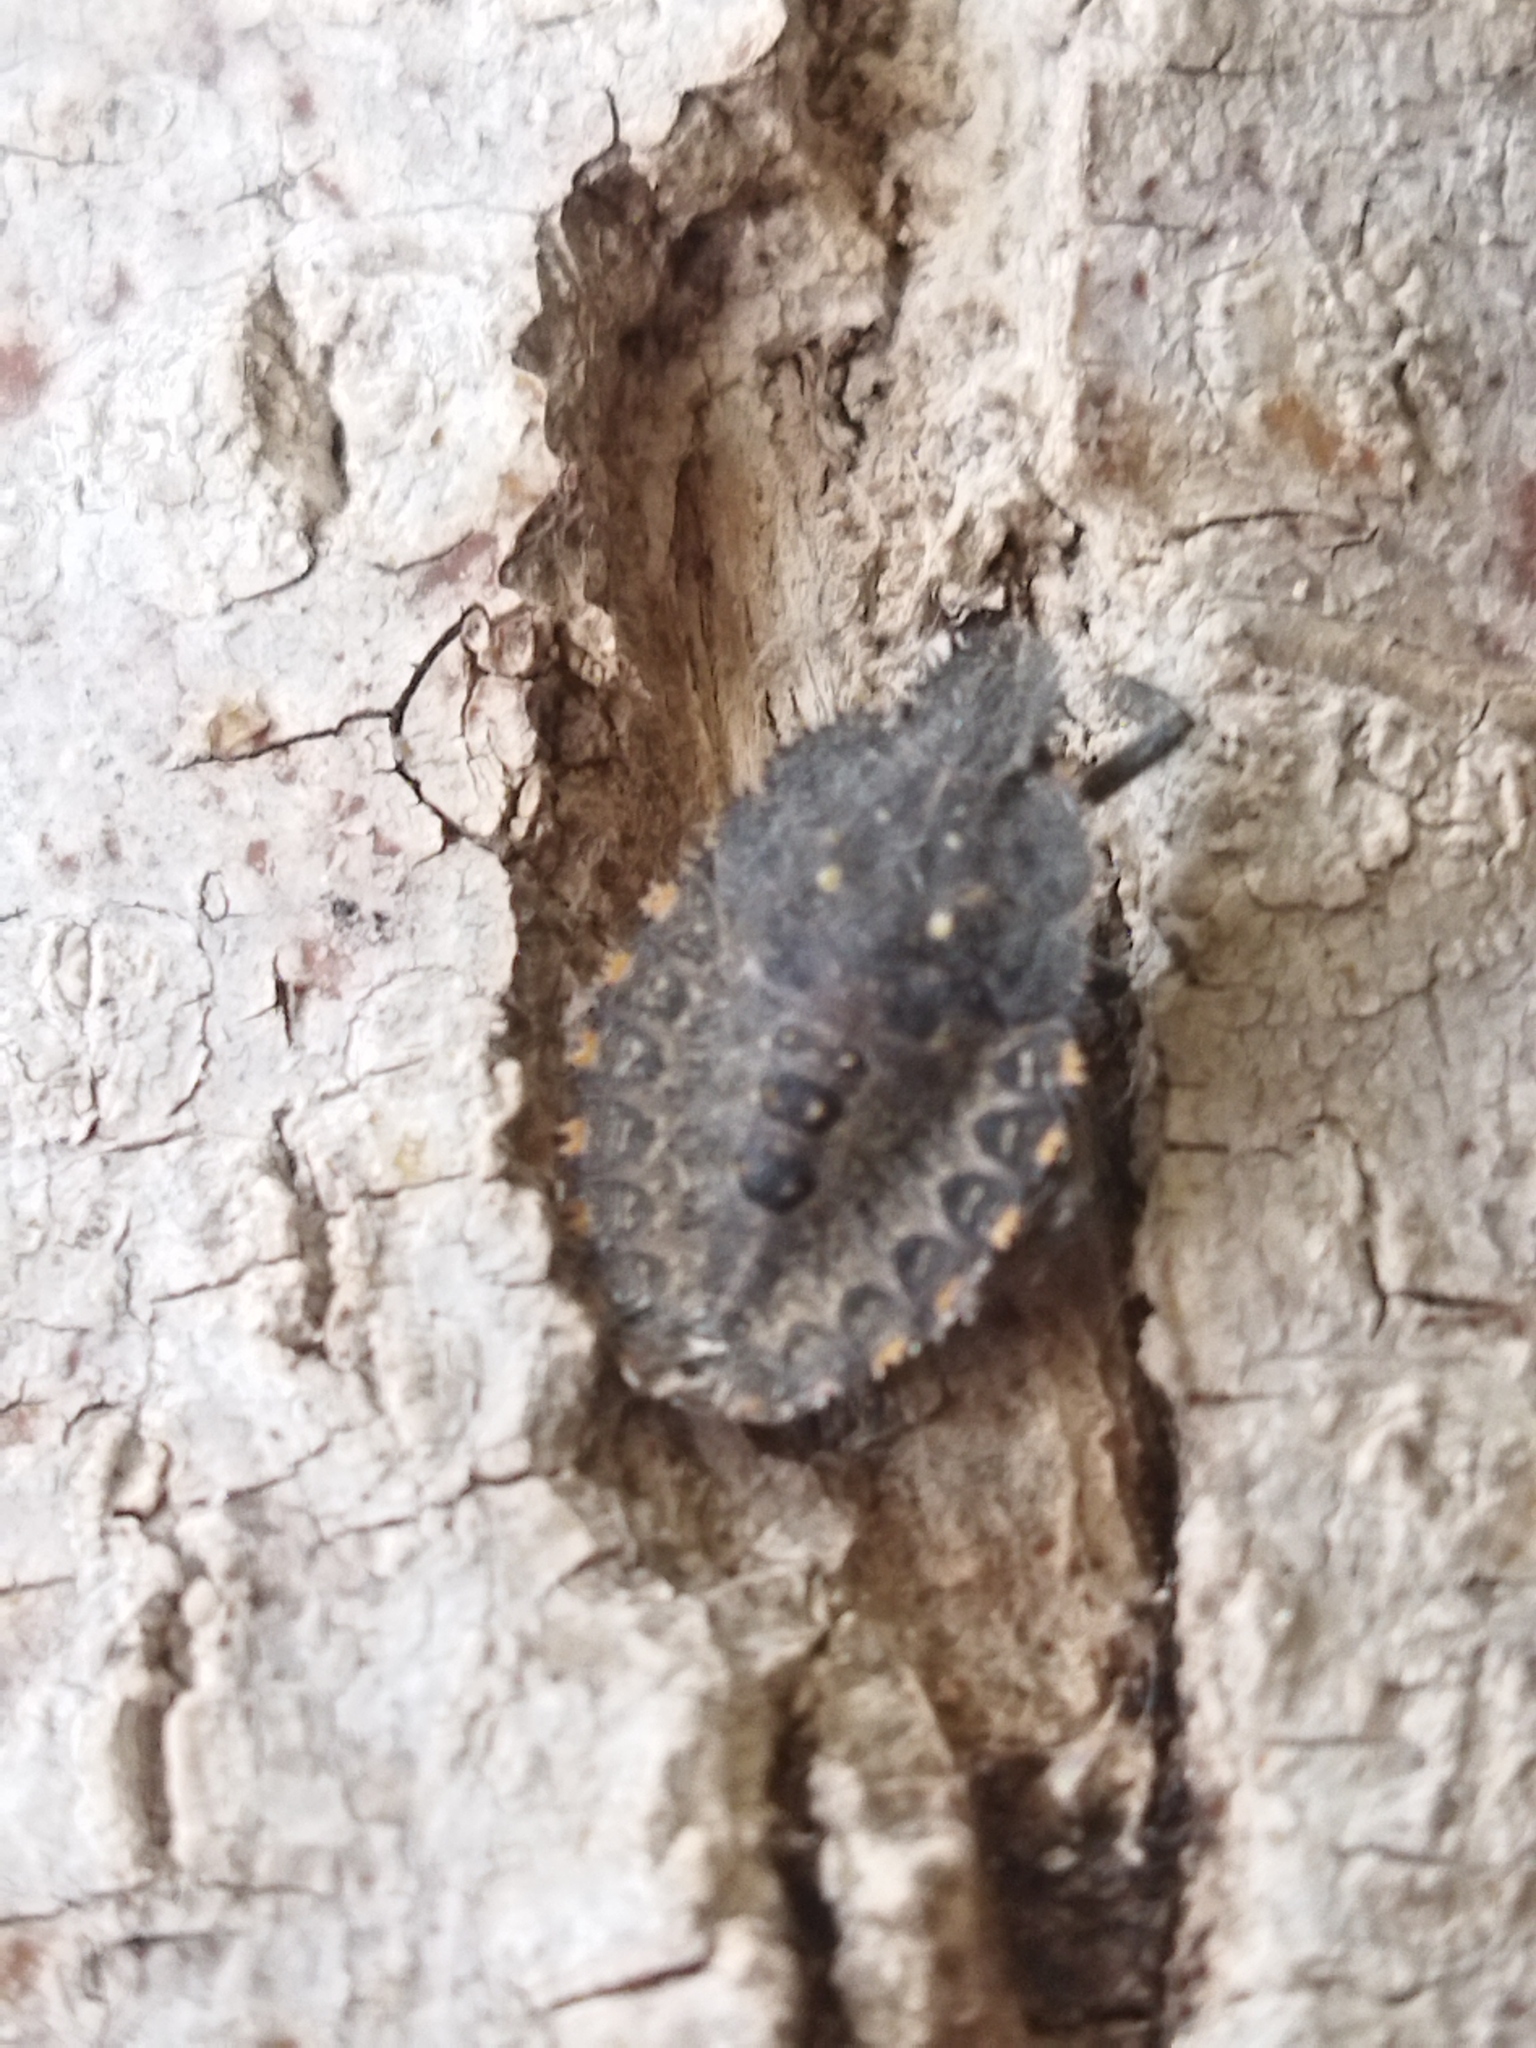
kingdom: Animalia
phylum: Arthropoda
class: Insecta
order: Hemiptera
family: Pentatomidae
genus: Mustha
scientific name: Mustha spinosula
